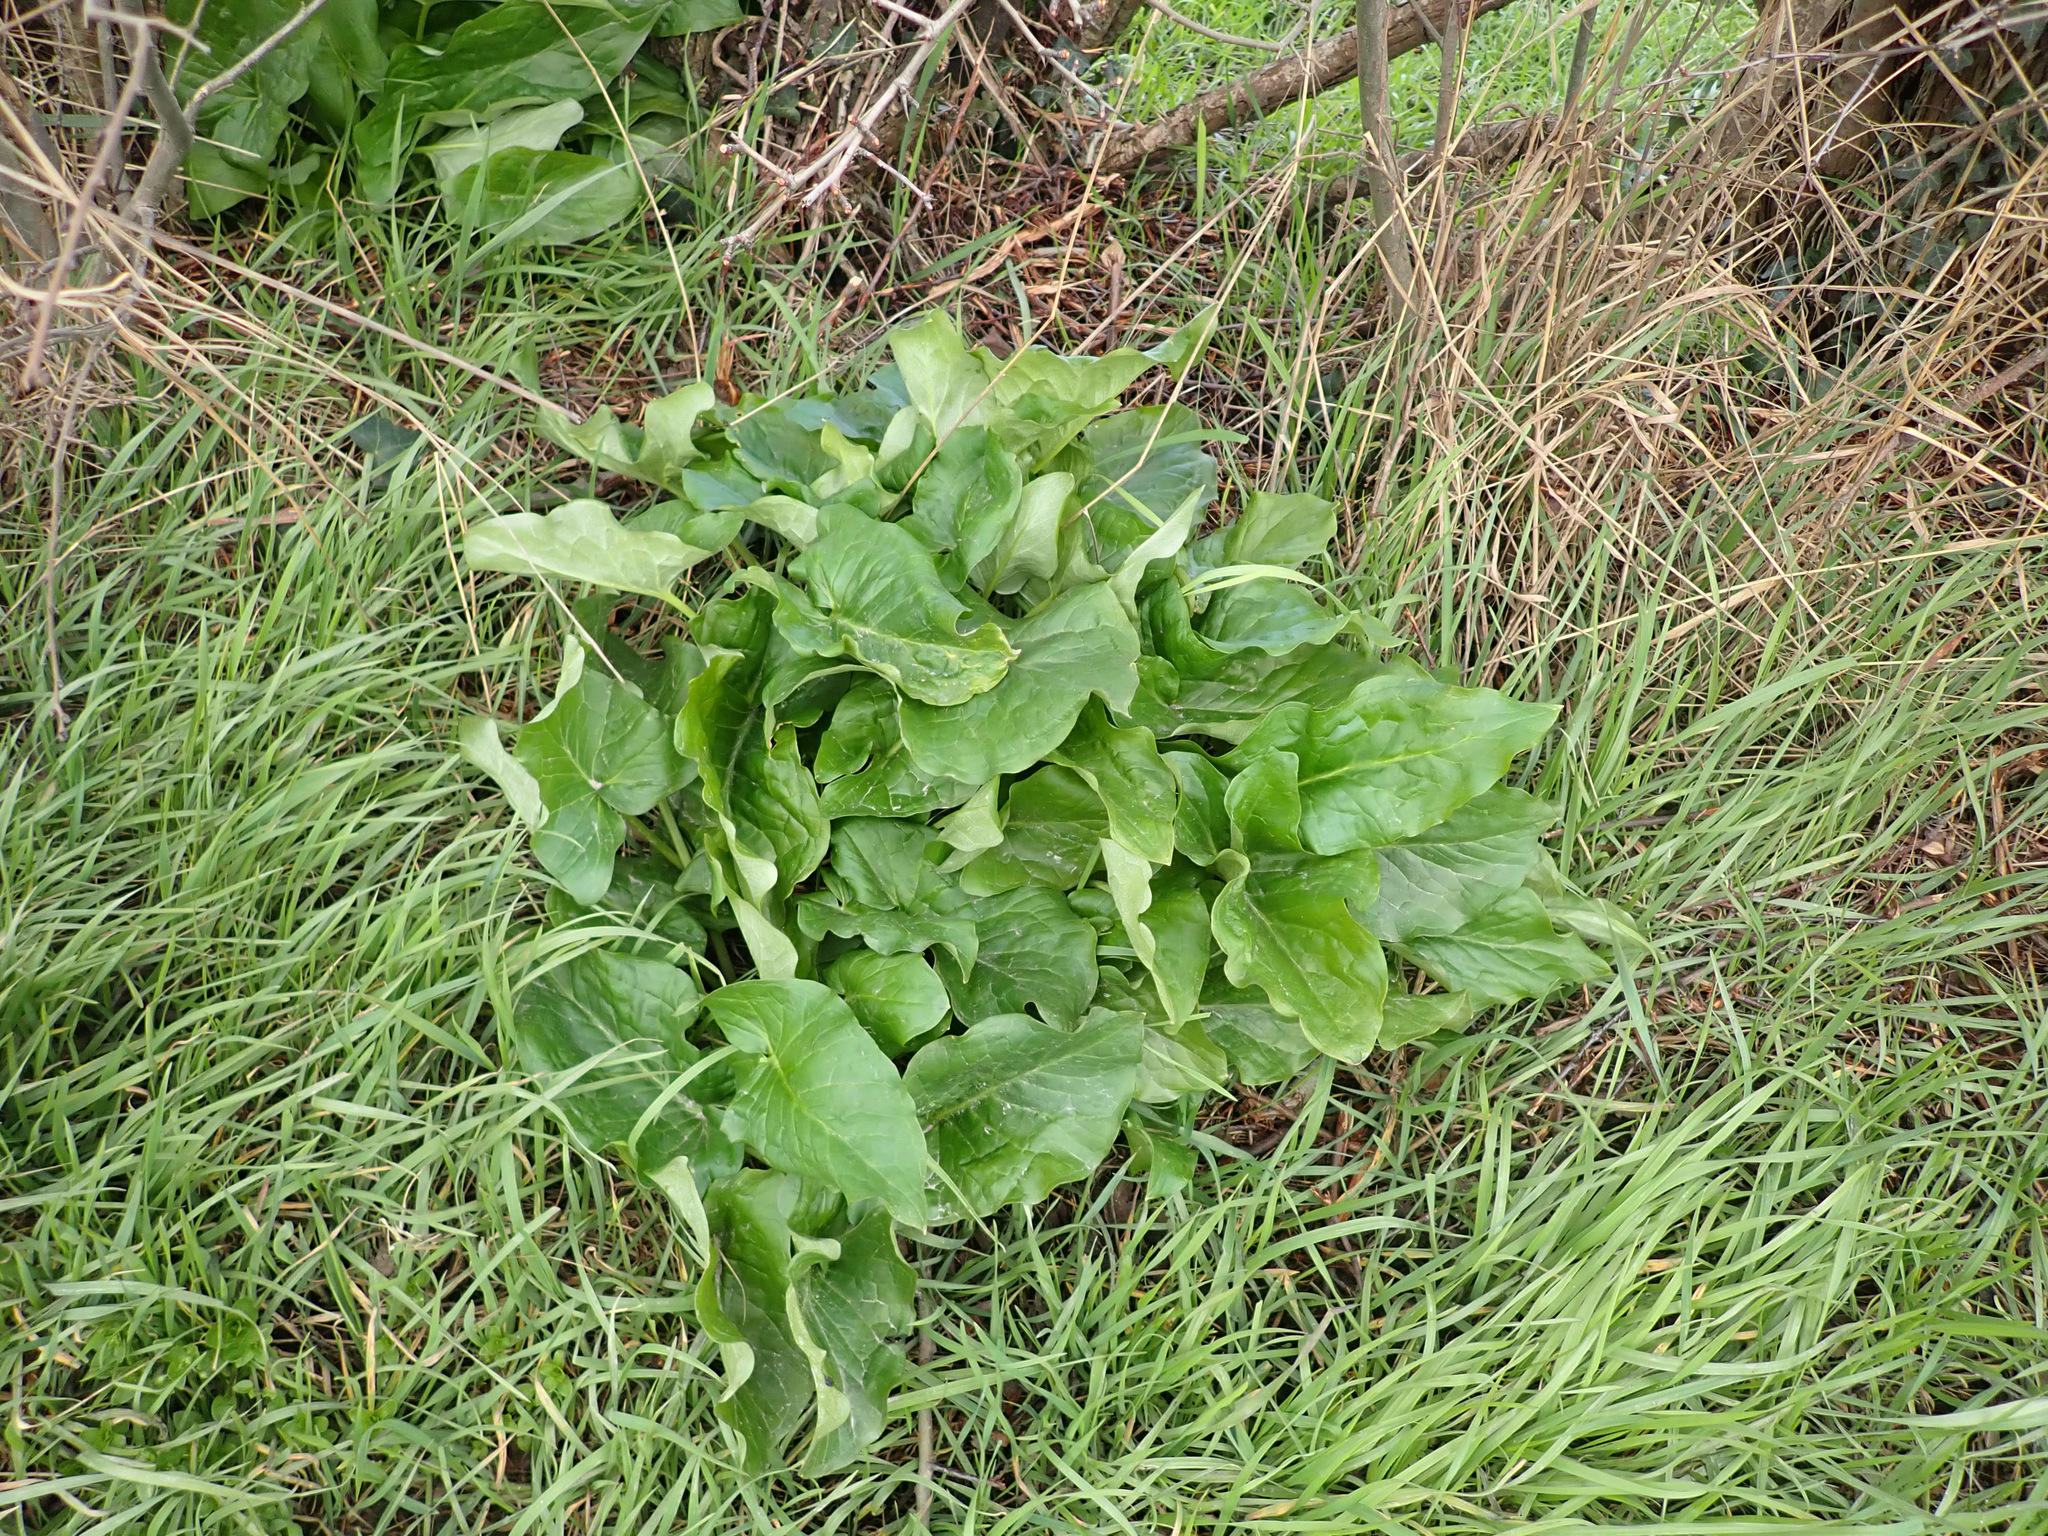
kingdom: Plantae
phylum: Tracheophyta
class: Liliopsida
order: Alismatales
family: Araceae
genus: Arum
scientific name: Arum maculatum
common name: Lords-and-ladies
